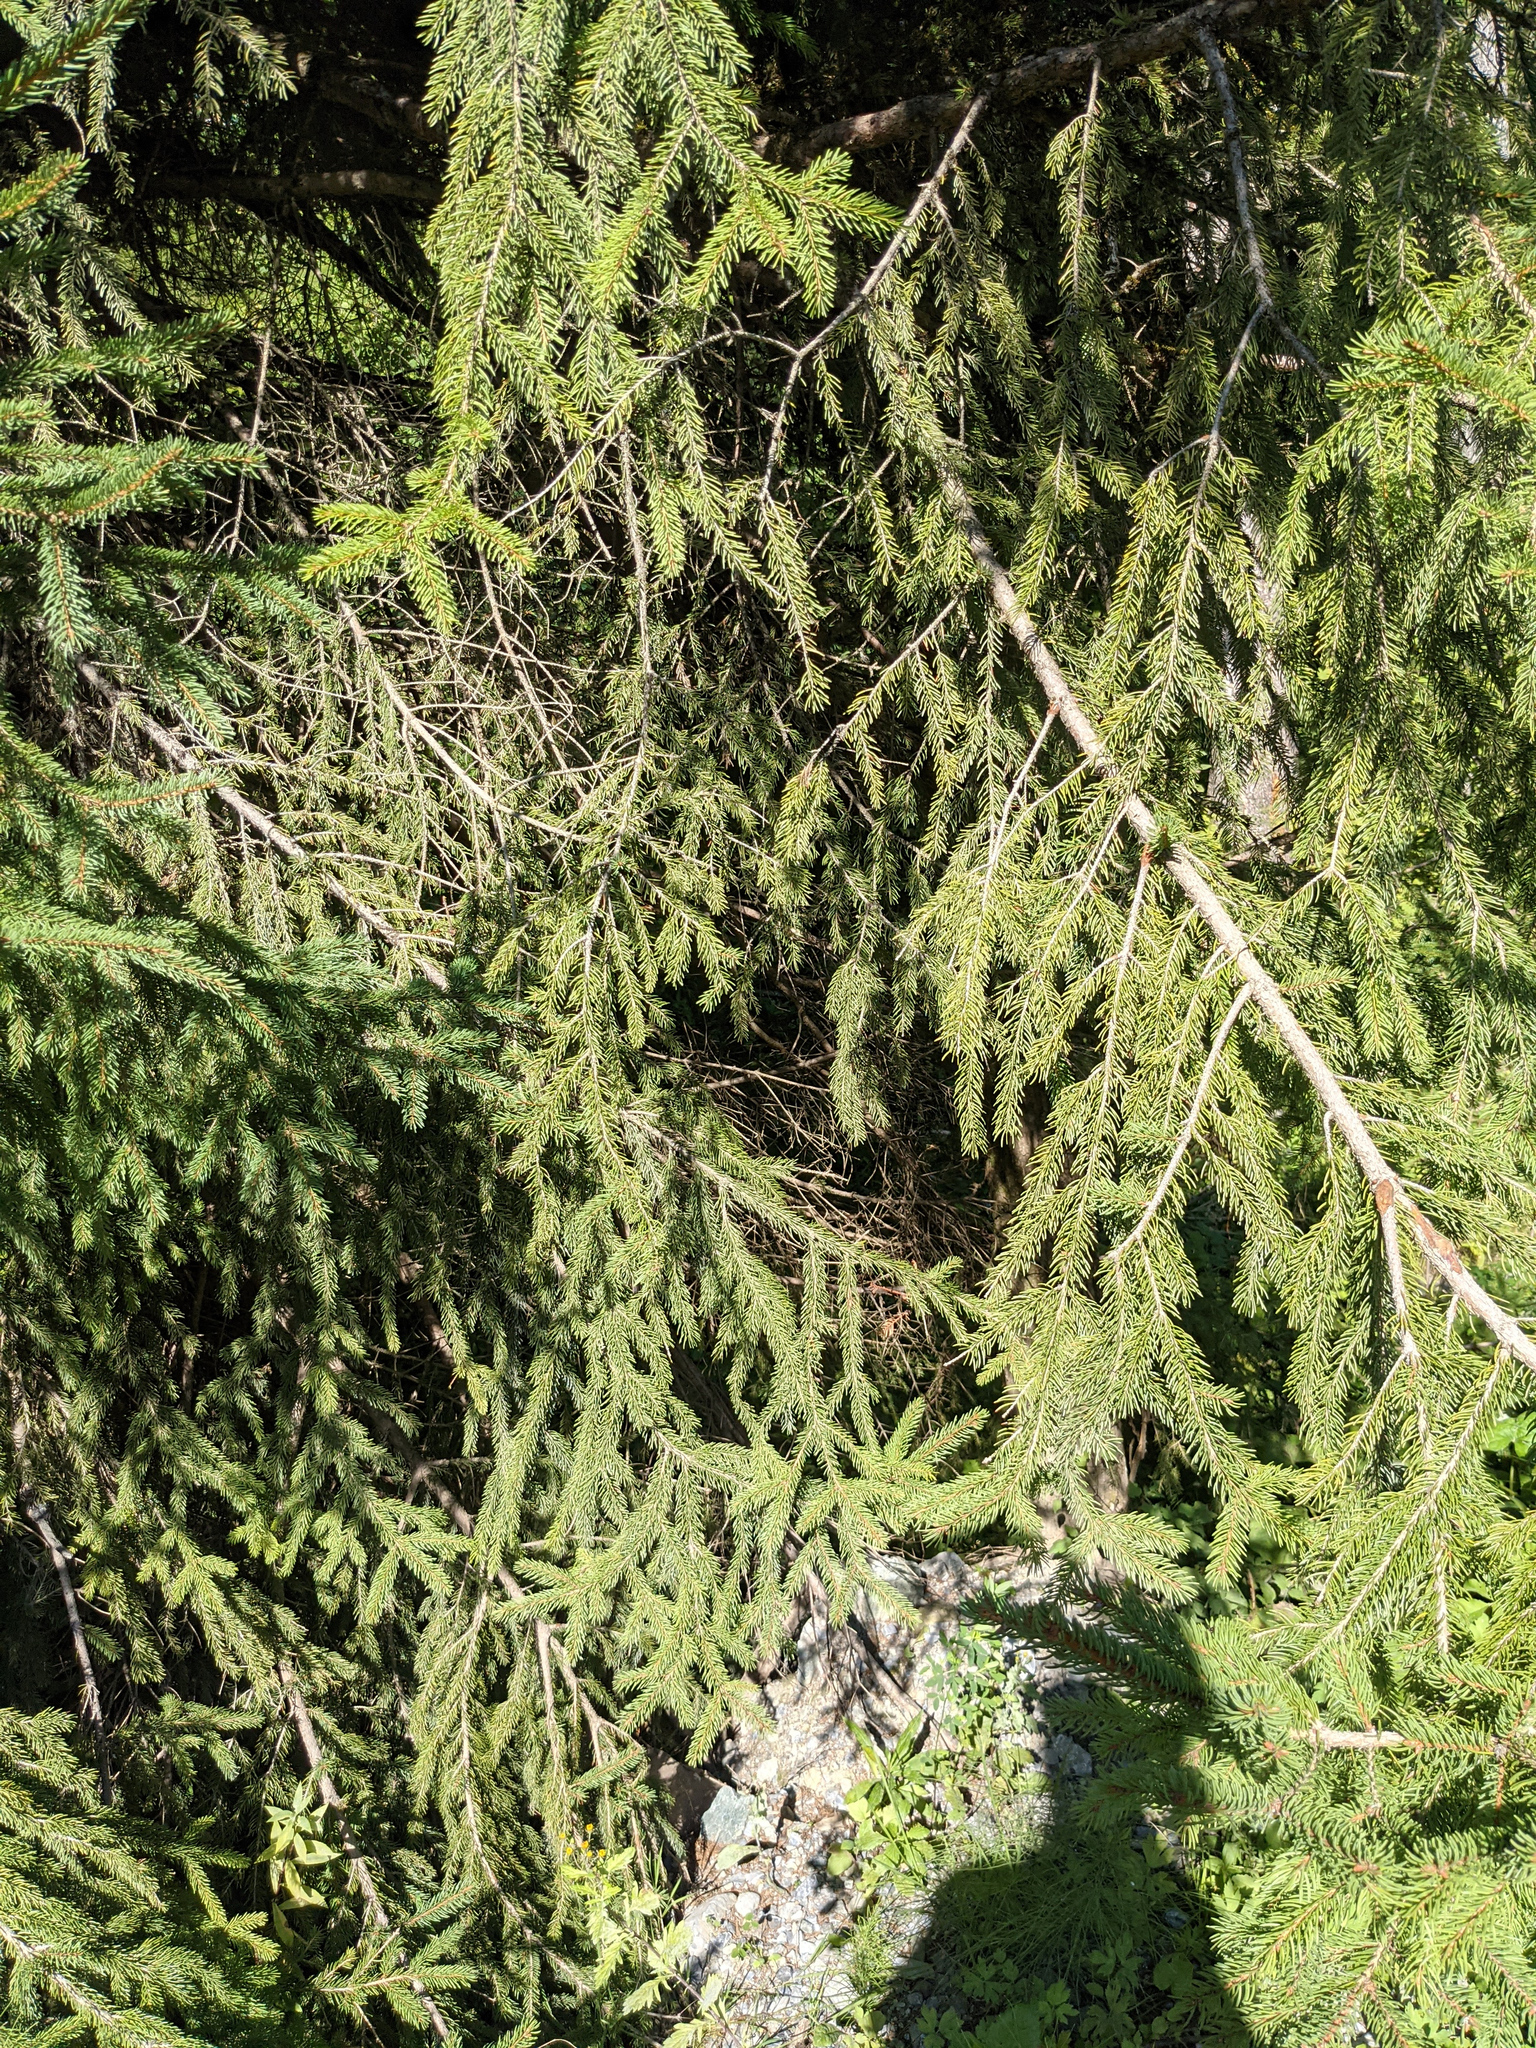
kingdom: Plantae
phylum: Tracheophyta
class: Pinopsida
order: Pinales
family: Pinaceae
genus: Picea
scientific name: Picea abies
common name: Norway spruce
